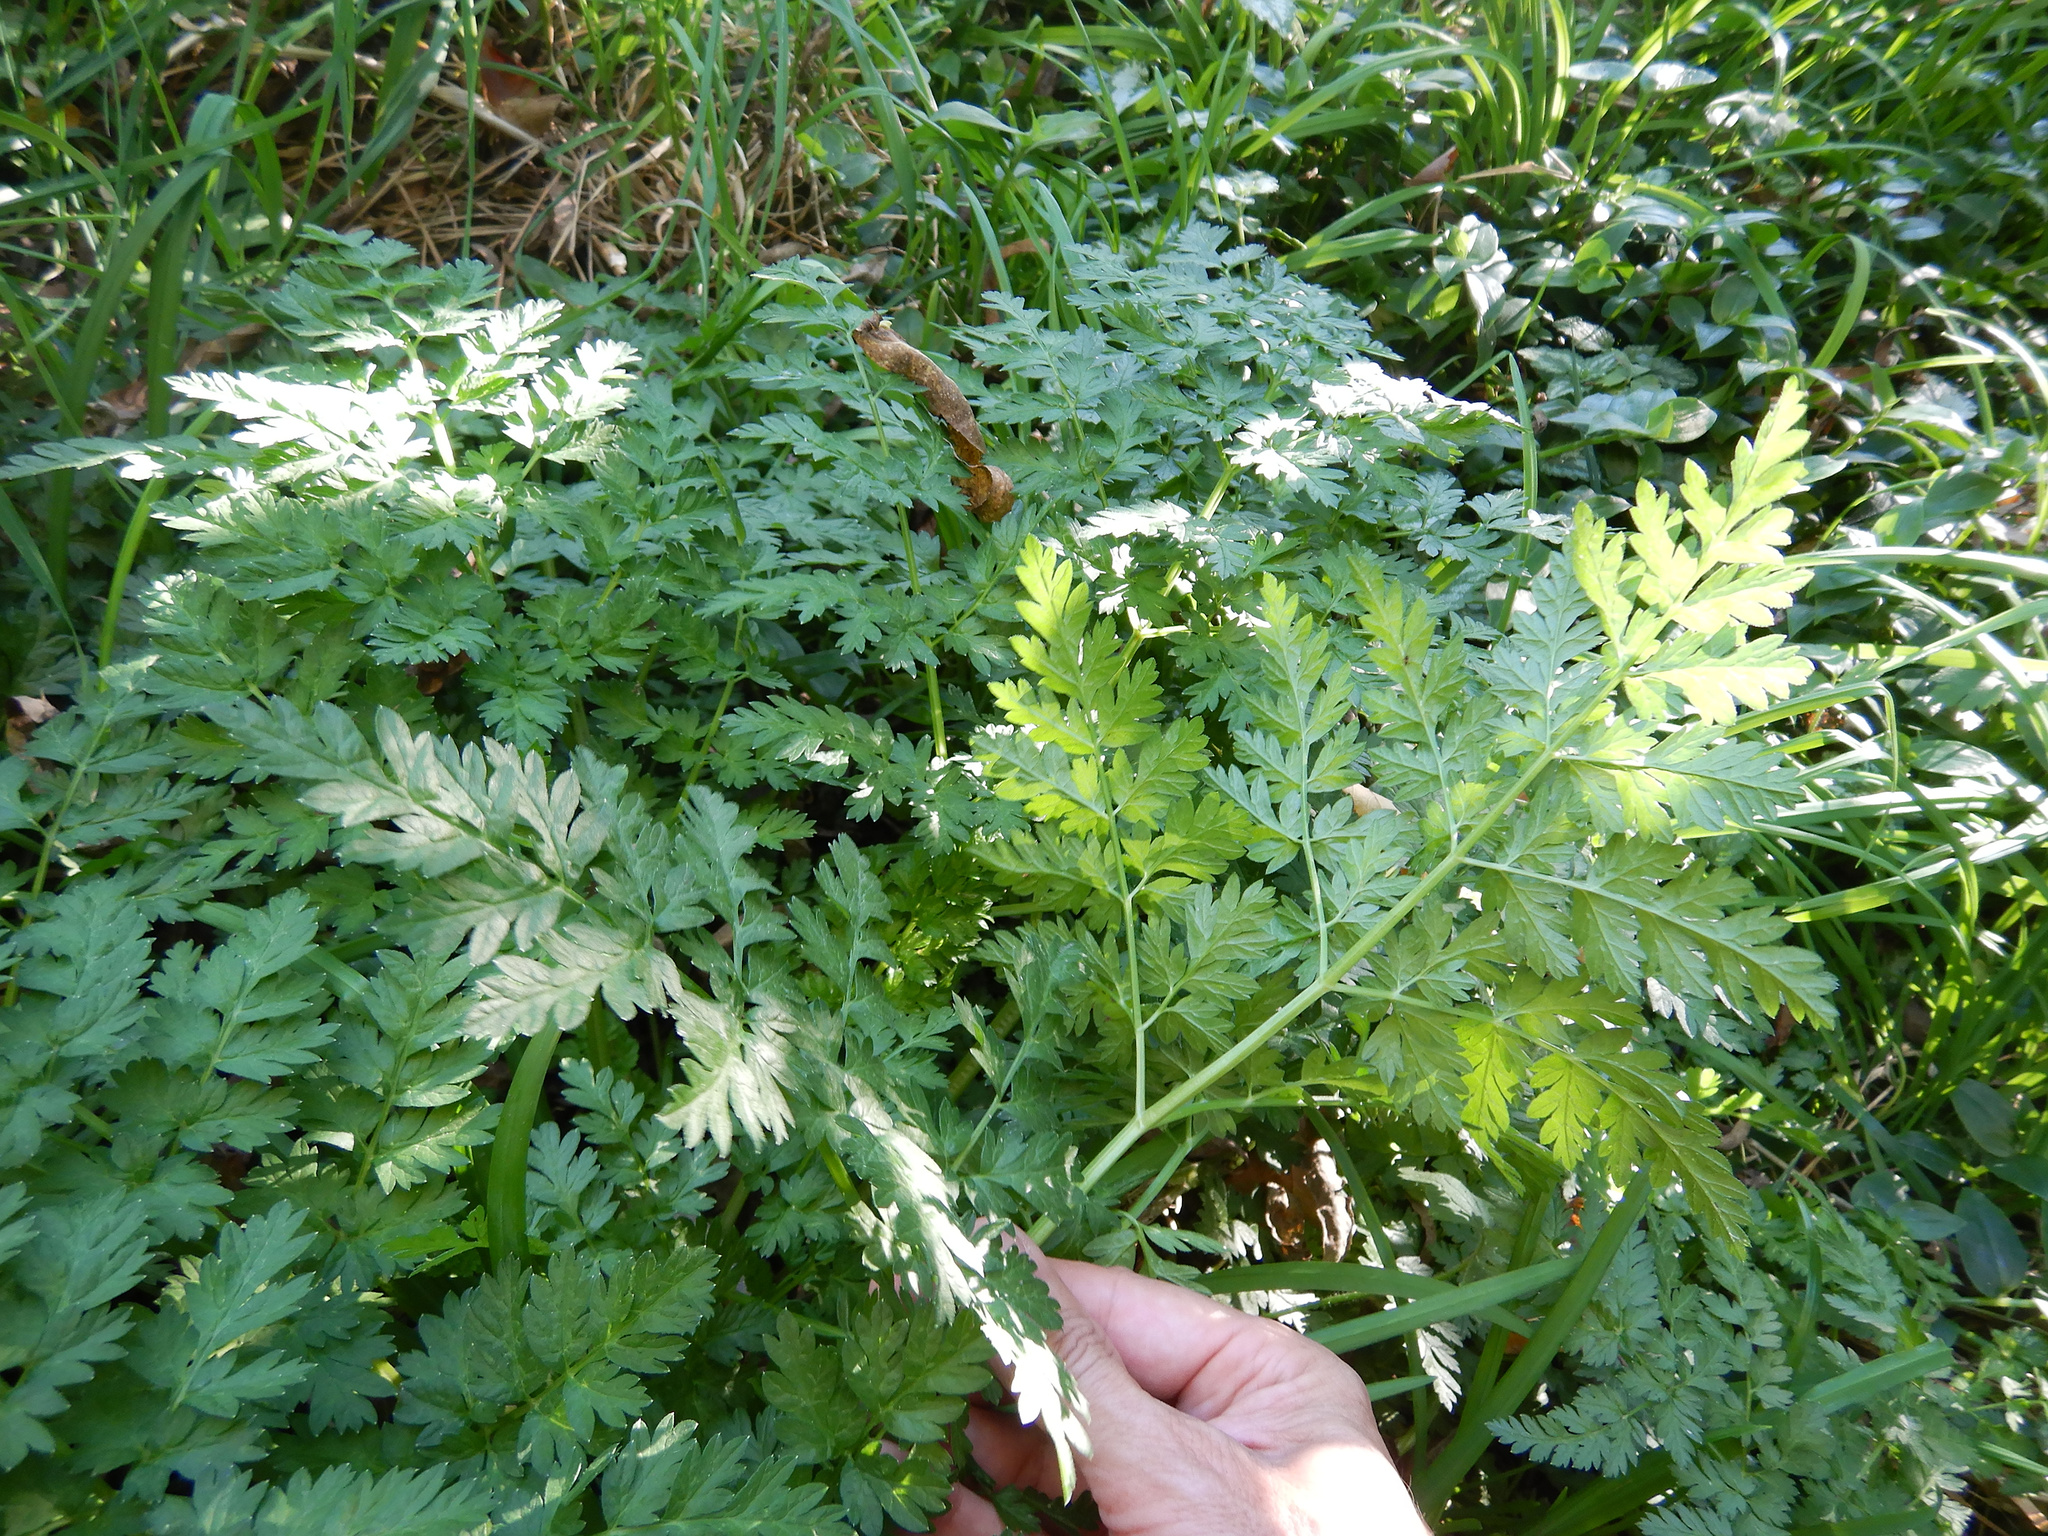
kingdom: Plantae
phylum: Tracheophyta
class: Magnoliopsida
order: Apiales
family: Apiaceae
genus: Anthriscus
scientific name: Anthriscus sylvestris
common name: Cow parsley
